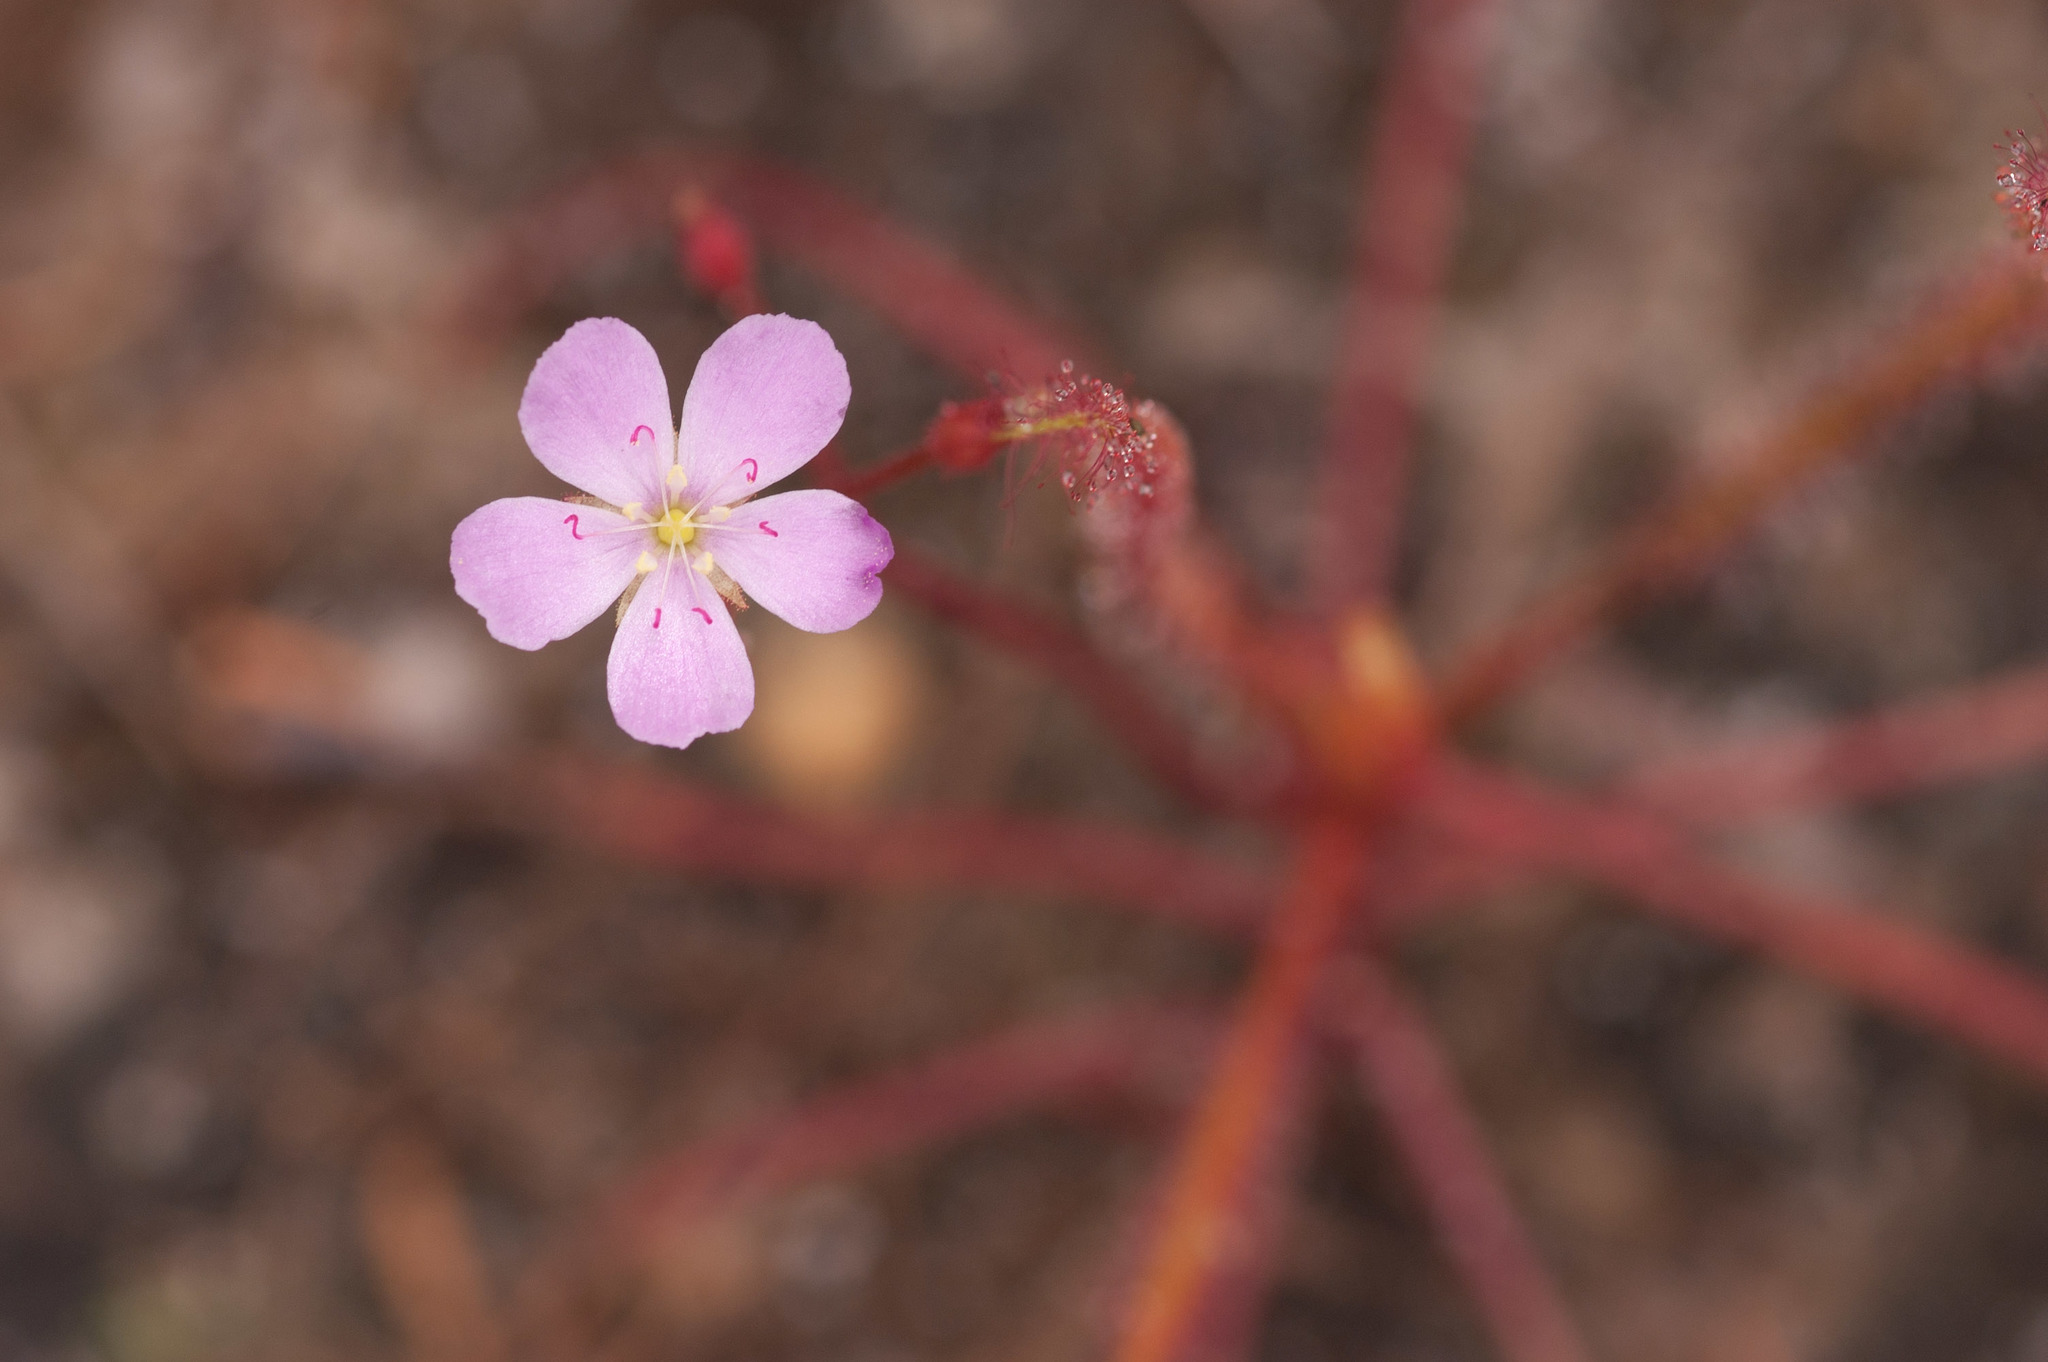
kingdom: Plantae
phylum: Tracheophyta
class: Magnoliopsida
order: Caryophyllales
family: Droseraceae
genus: Drosera
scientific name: Drosera indica
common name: Indian sundew
